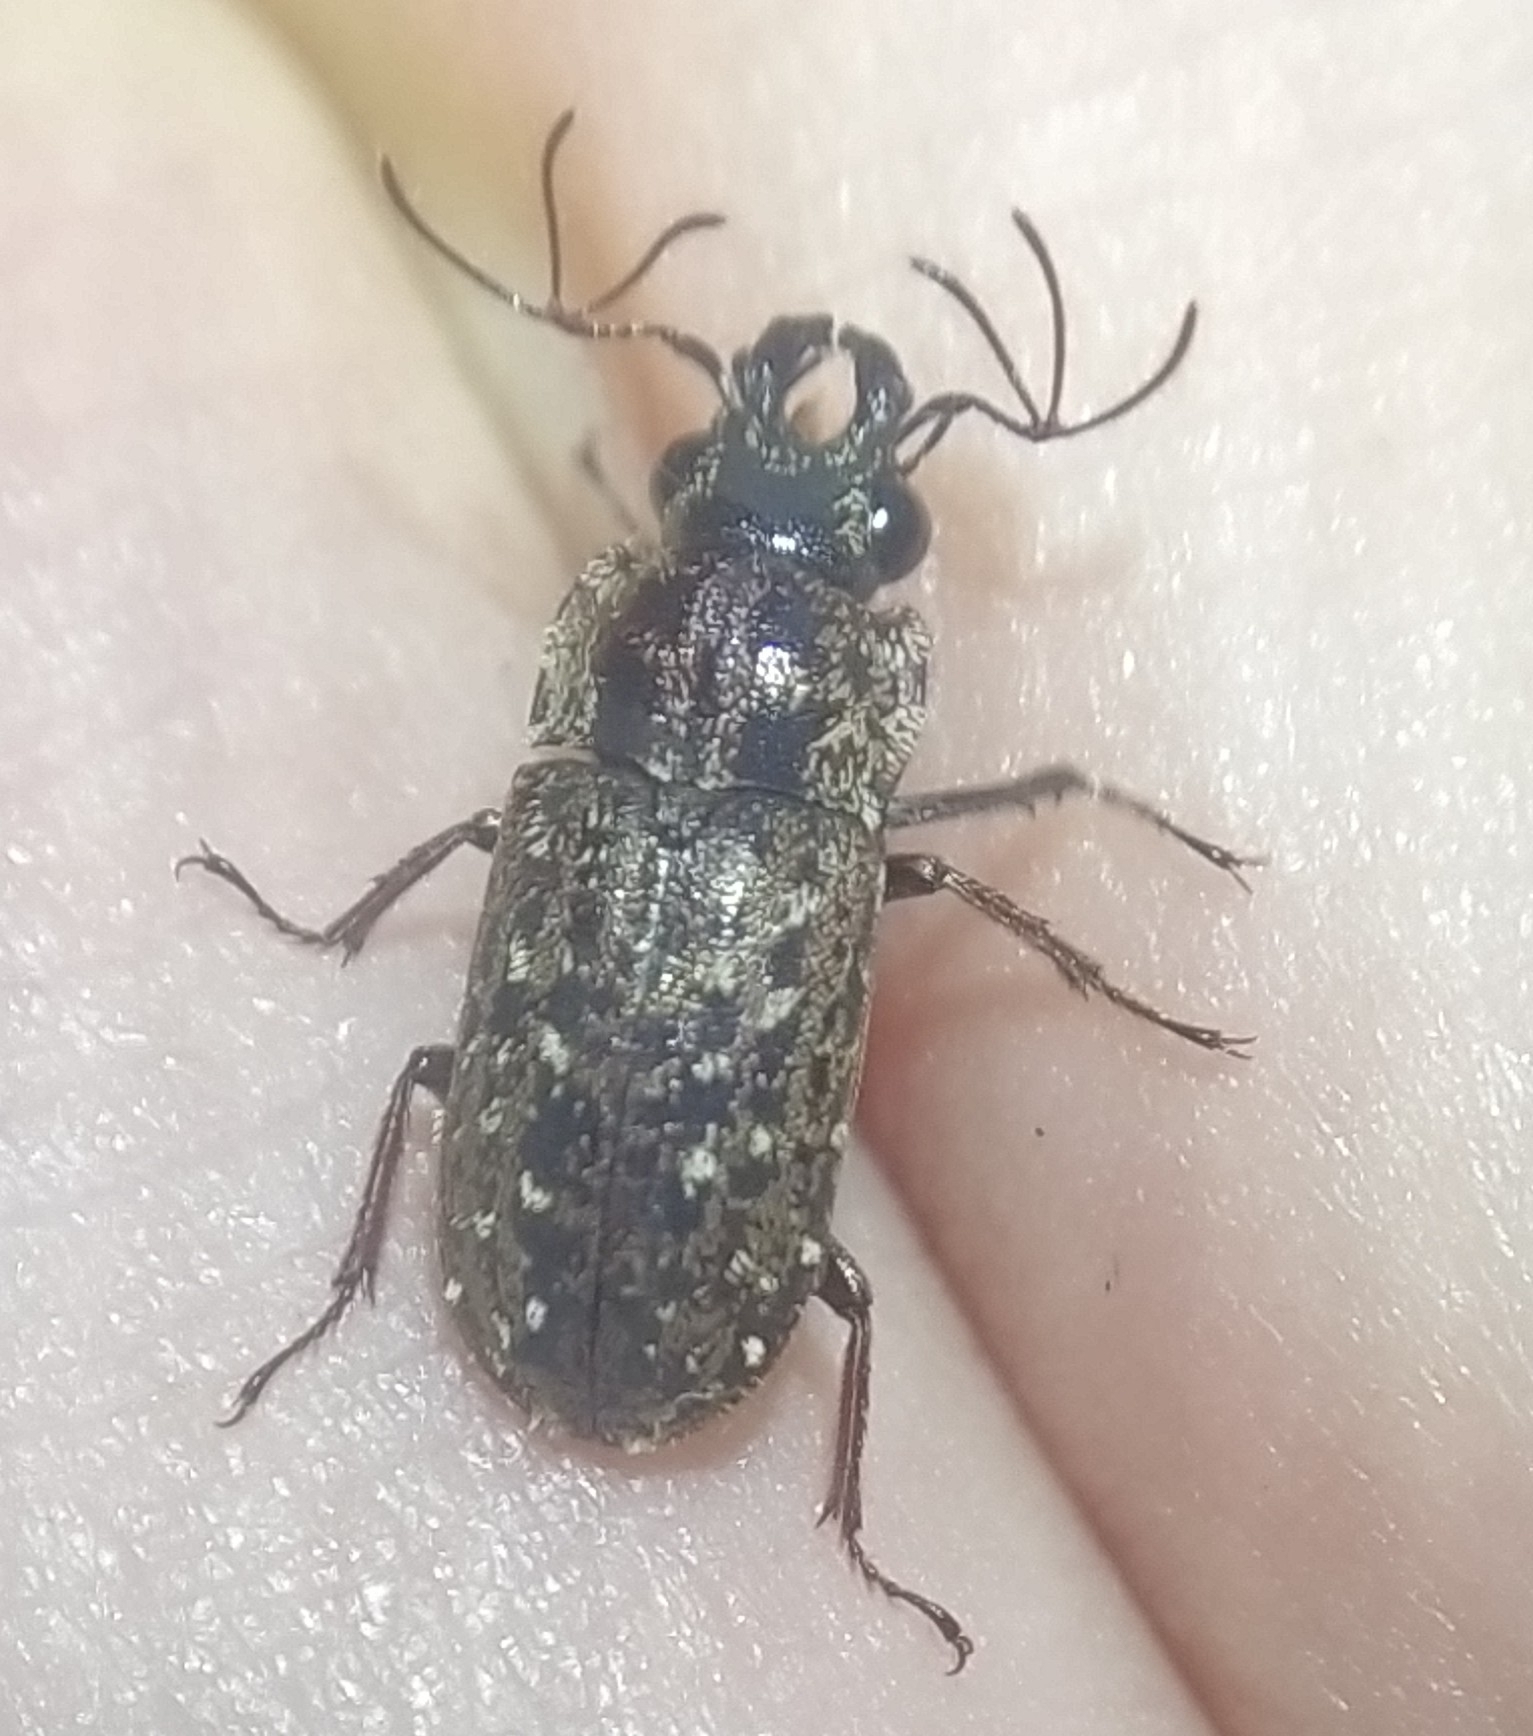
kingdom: Animalia
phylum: Arthropoda
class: Insecta
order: Coleoptera
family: Lucanidae
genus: Mitophyllus
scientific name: Mitophyllus arcuatus
